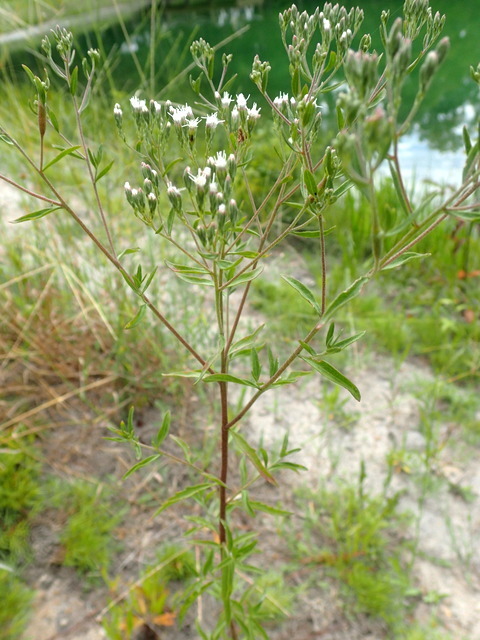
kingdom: Plantae
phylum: Tracheophyta
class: Magnoliopsida
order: Asterales
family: Asteraceae
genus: Eupatorium
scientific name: Eupatorium hyssopifolium
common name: Hyssop-leaf thoroughwort
